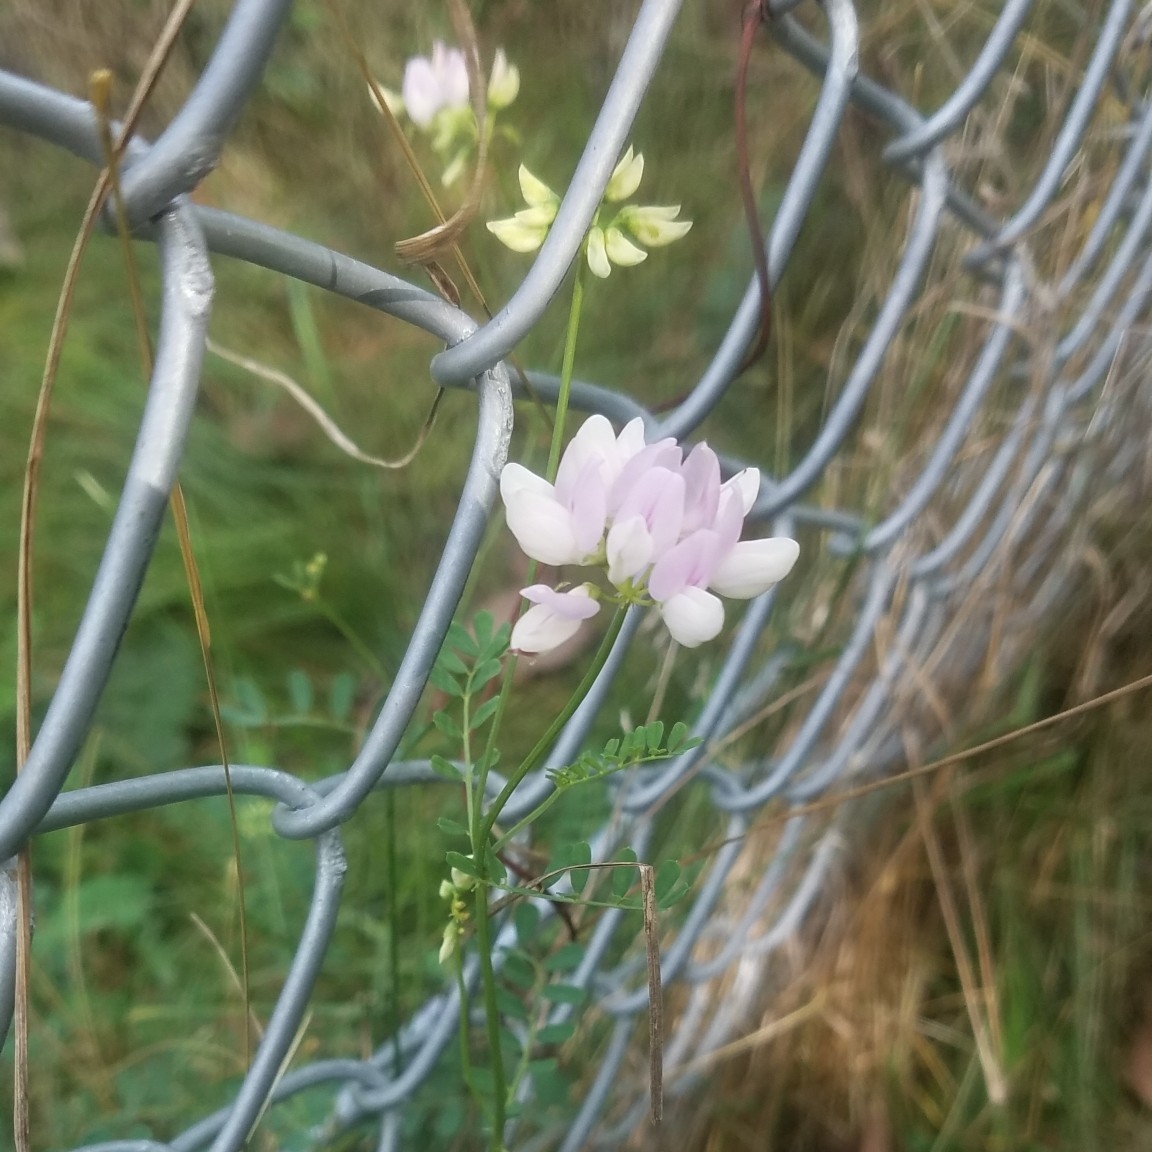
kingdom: Plantae
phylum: Tracheophyta
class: Magnoliopsida
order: Fabales
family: Fabaceae
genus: Coronilla
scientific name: Coronilla varia
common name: Crownvetch
